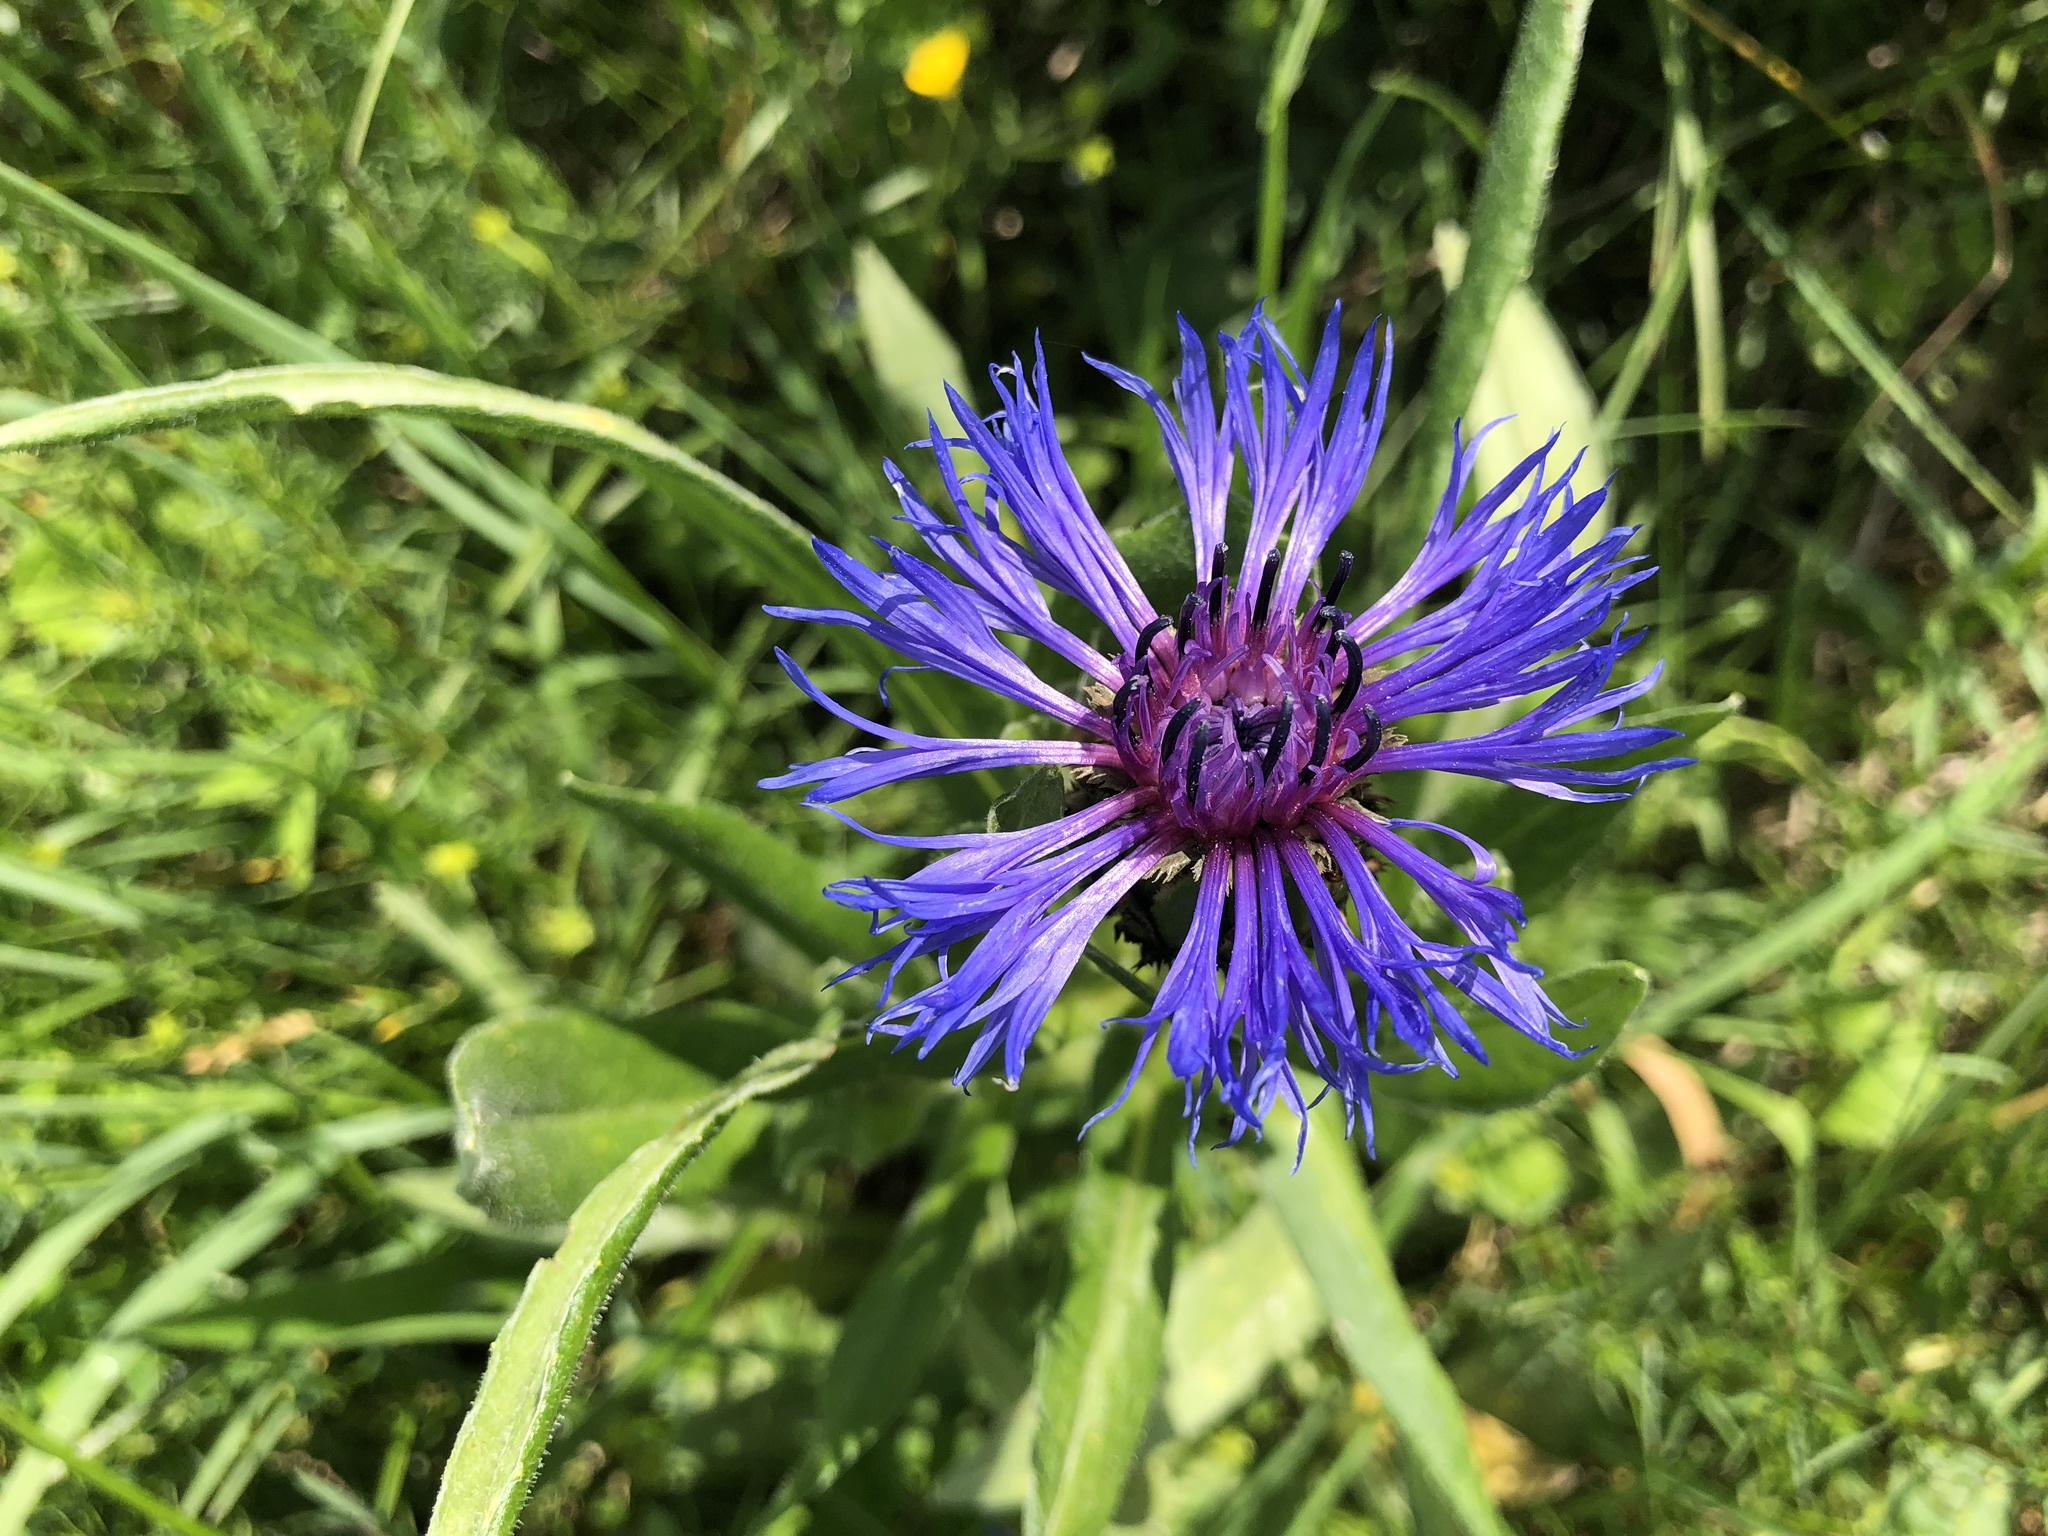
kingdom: Plantae
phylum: Tracheophyta
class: Magnoliopsida
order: Asterales
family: Asteraceae
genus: Centaurea
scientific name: Centaurea montana
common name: Perennial cornflower
